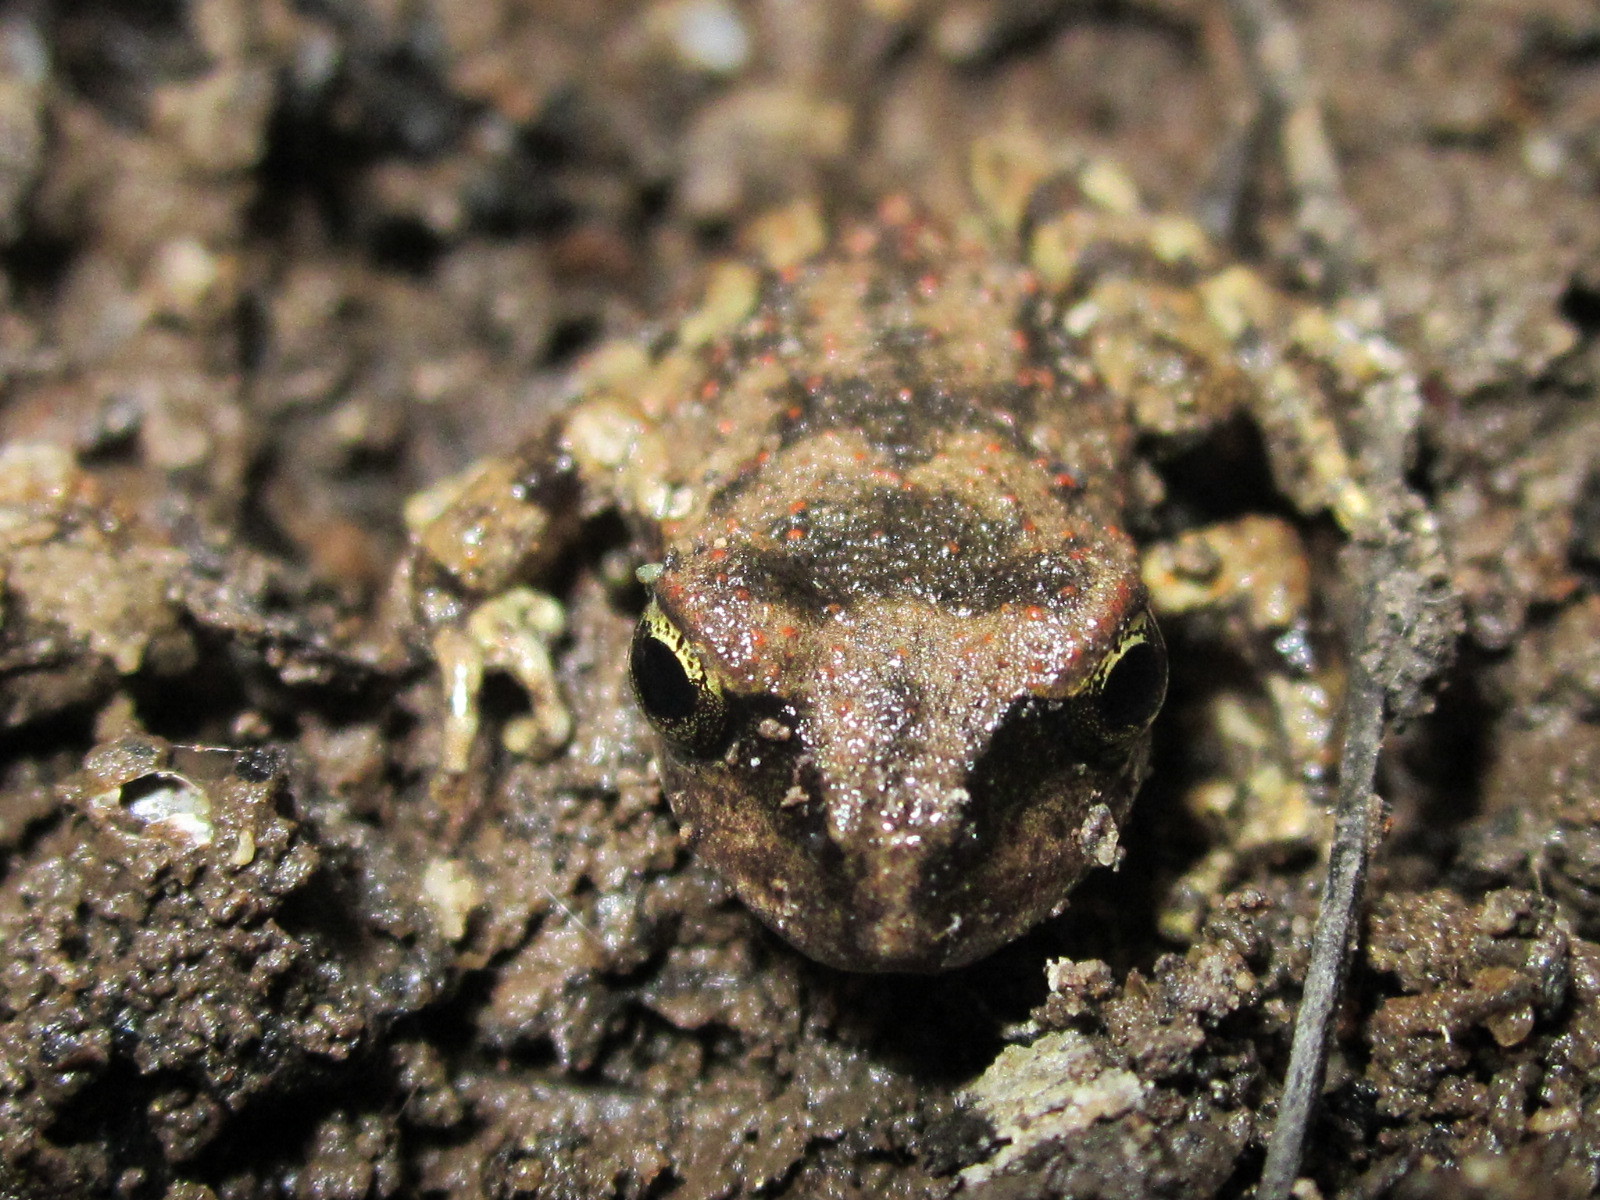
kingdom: Animalia
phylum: Chordata
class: Amphibia
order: Anura
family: Alsodidae
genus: Alsodes
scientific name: Alsodes nodosus
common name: Black spiny-chest frog
